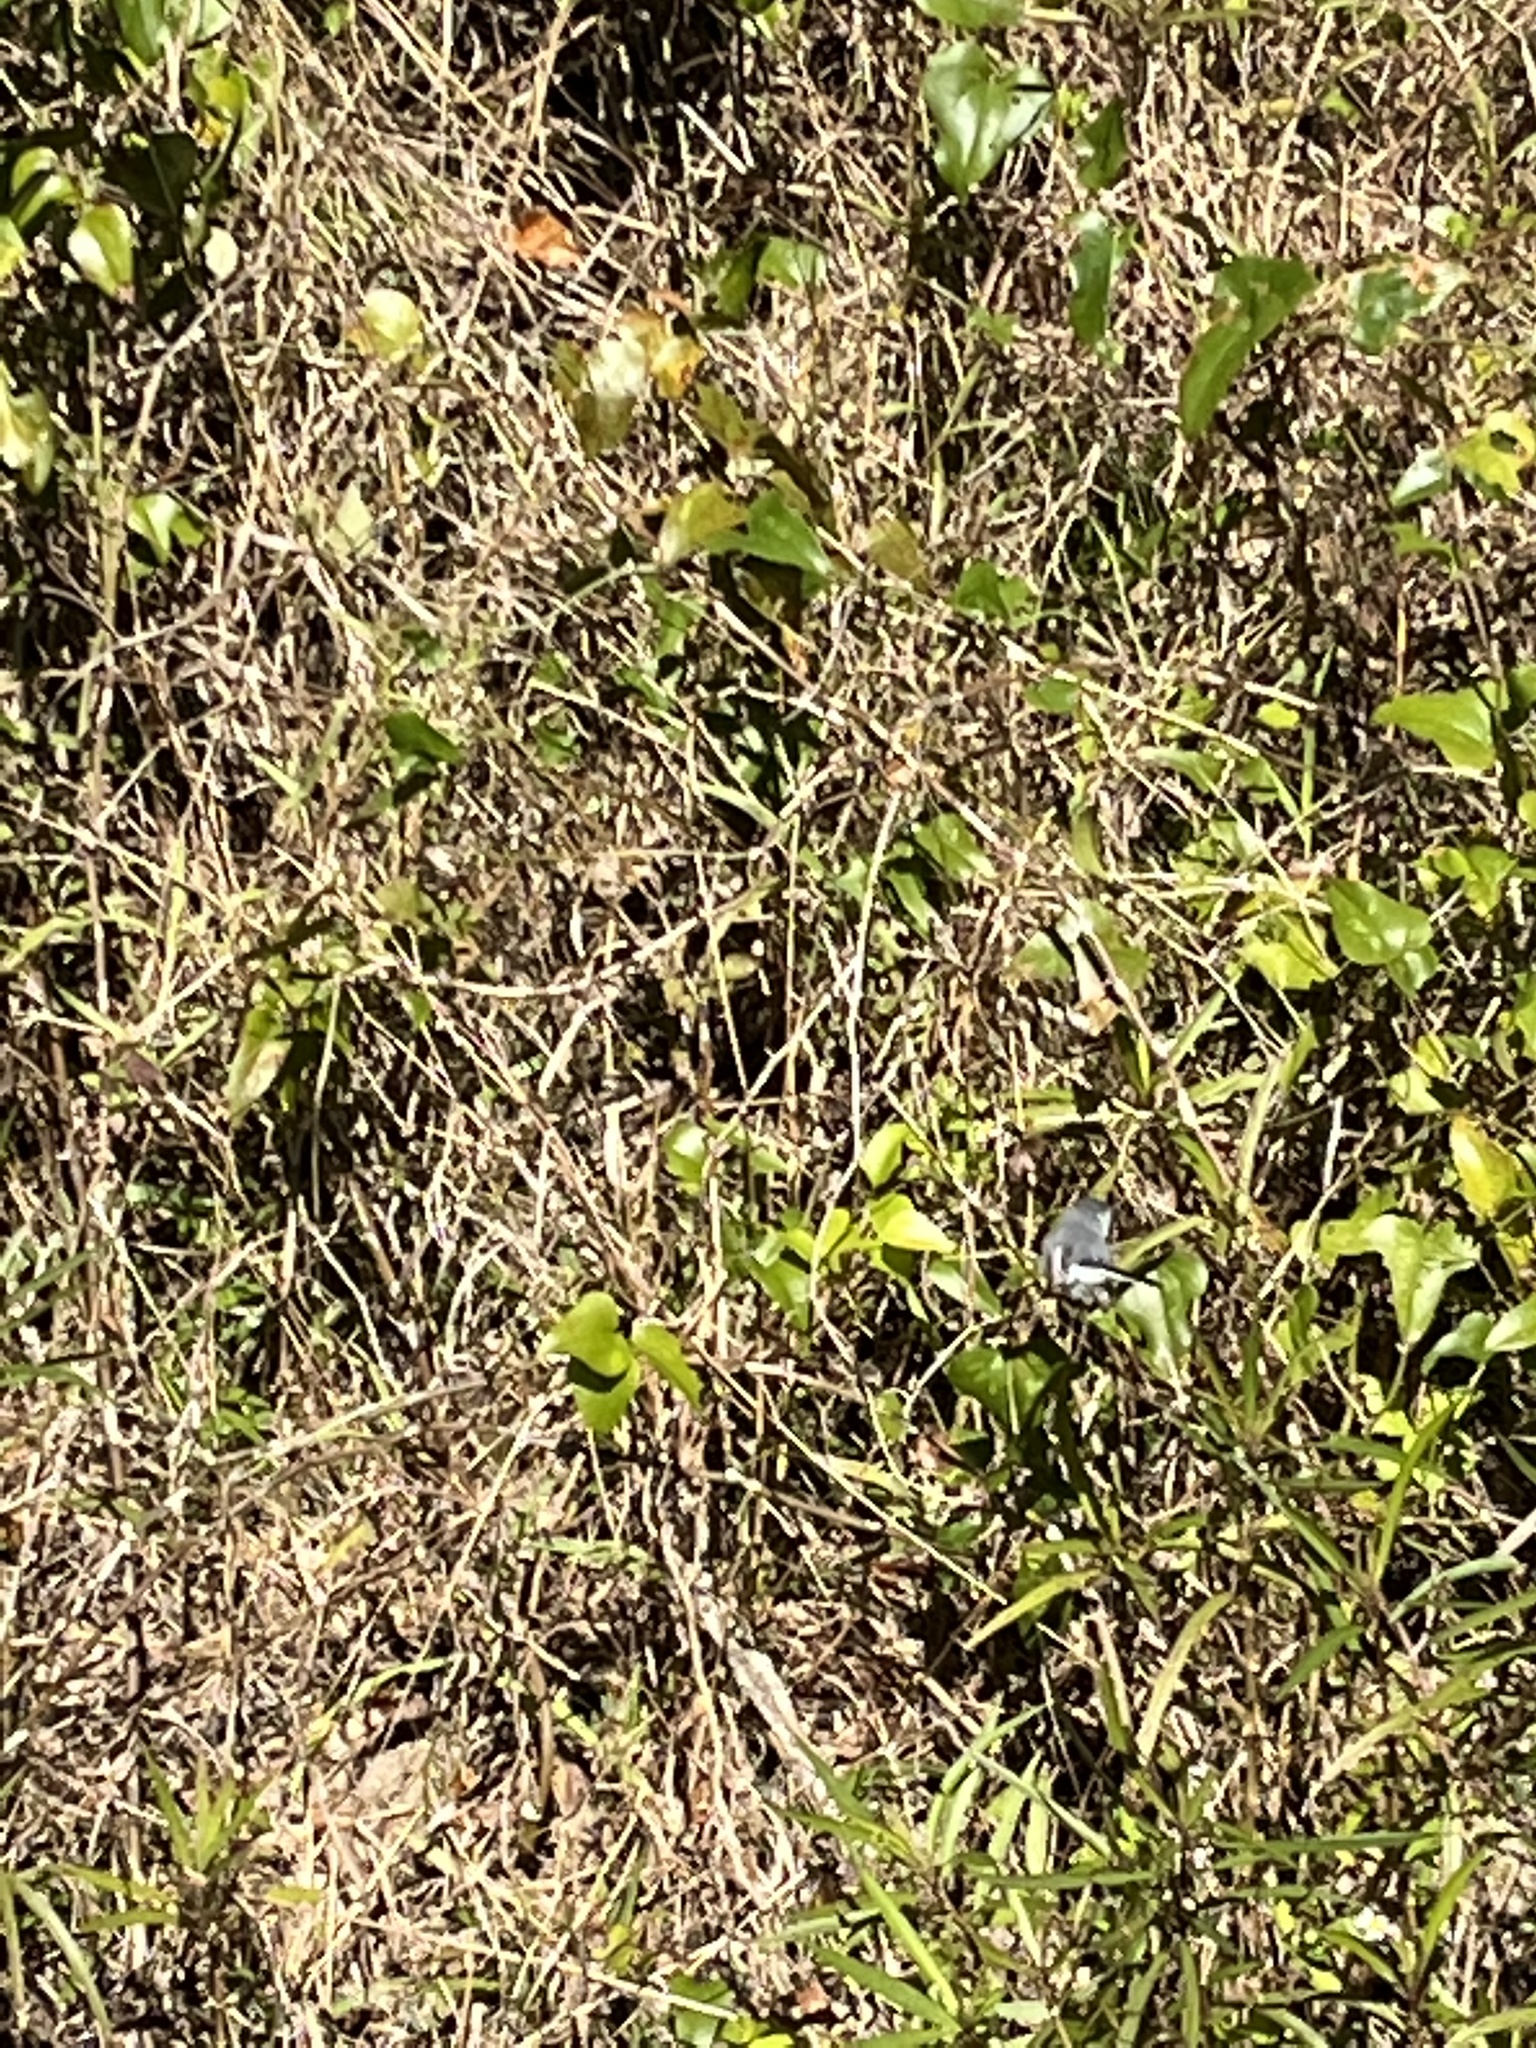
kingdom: Animalia
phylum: Chordata
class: Aves
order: Passeriformes
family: Polioptilidae
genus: Polioptila
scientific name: Polioptila caerulea
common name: Blue-gray gnatcatcher
